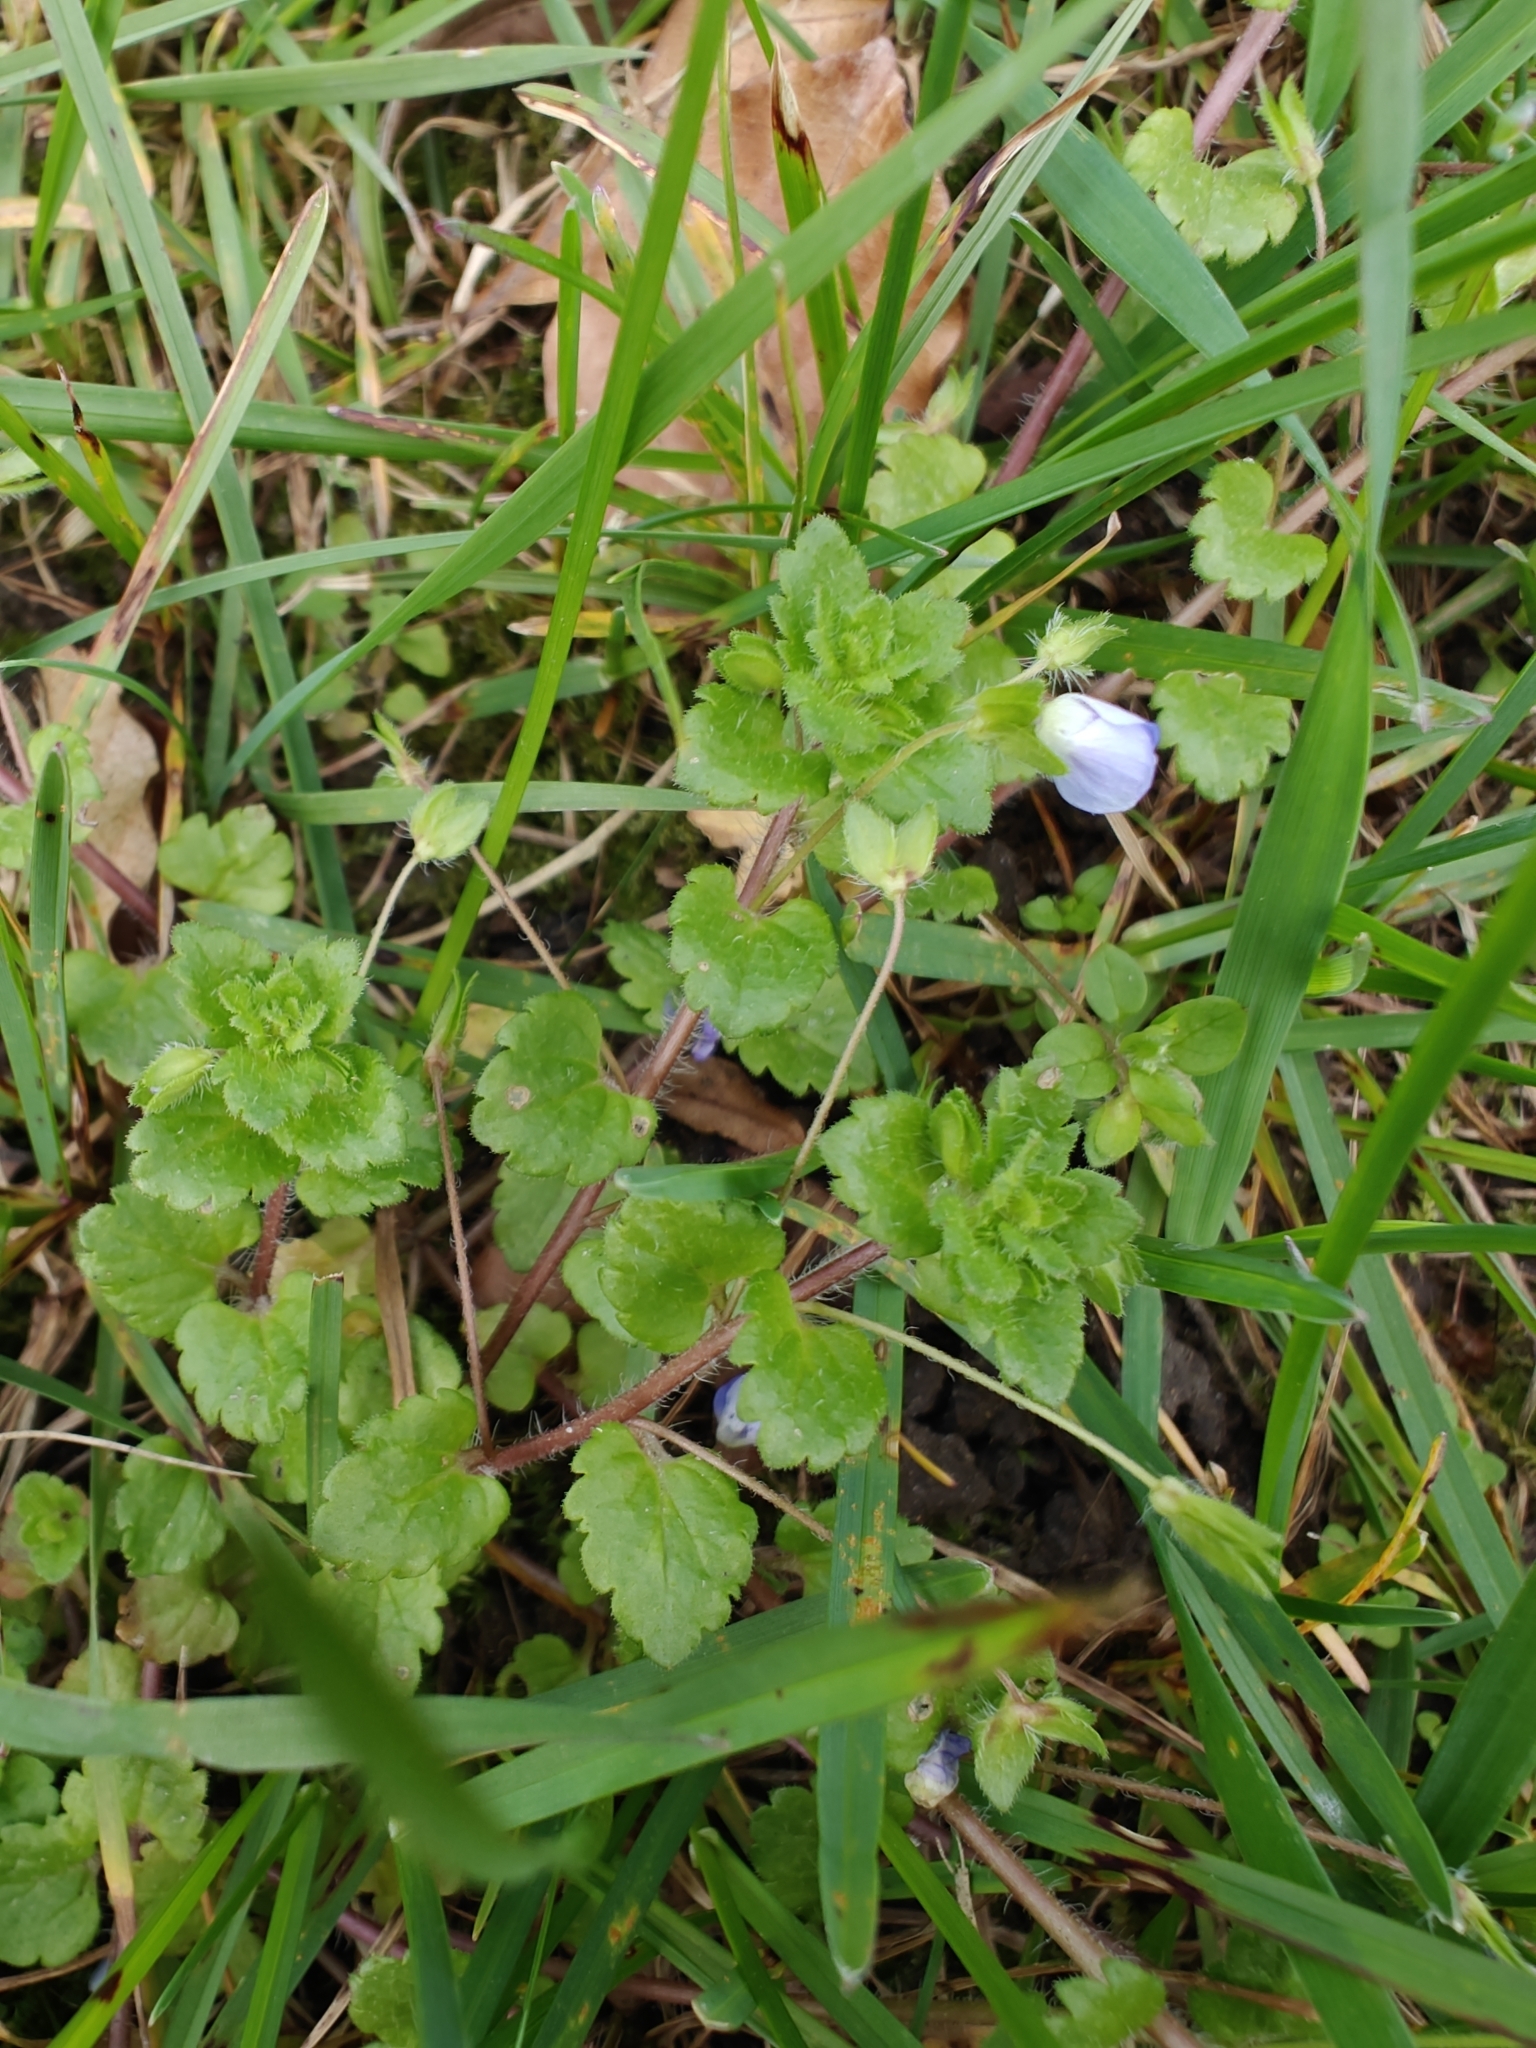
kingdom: Plantae
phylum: Tracheophyta
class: Magnoliopsida
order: Lamiales
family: Plantaginaceae
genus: Veronica
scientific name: Veronica persica
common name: Common field-speedwell
